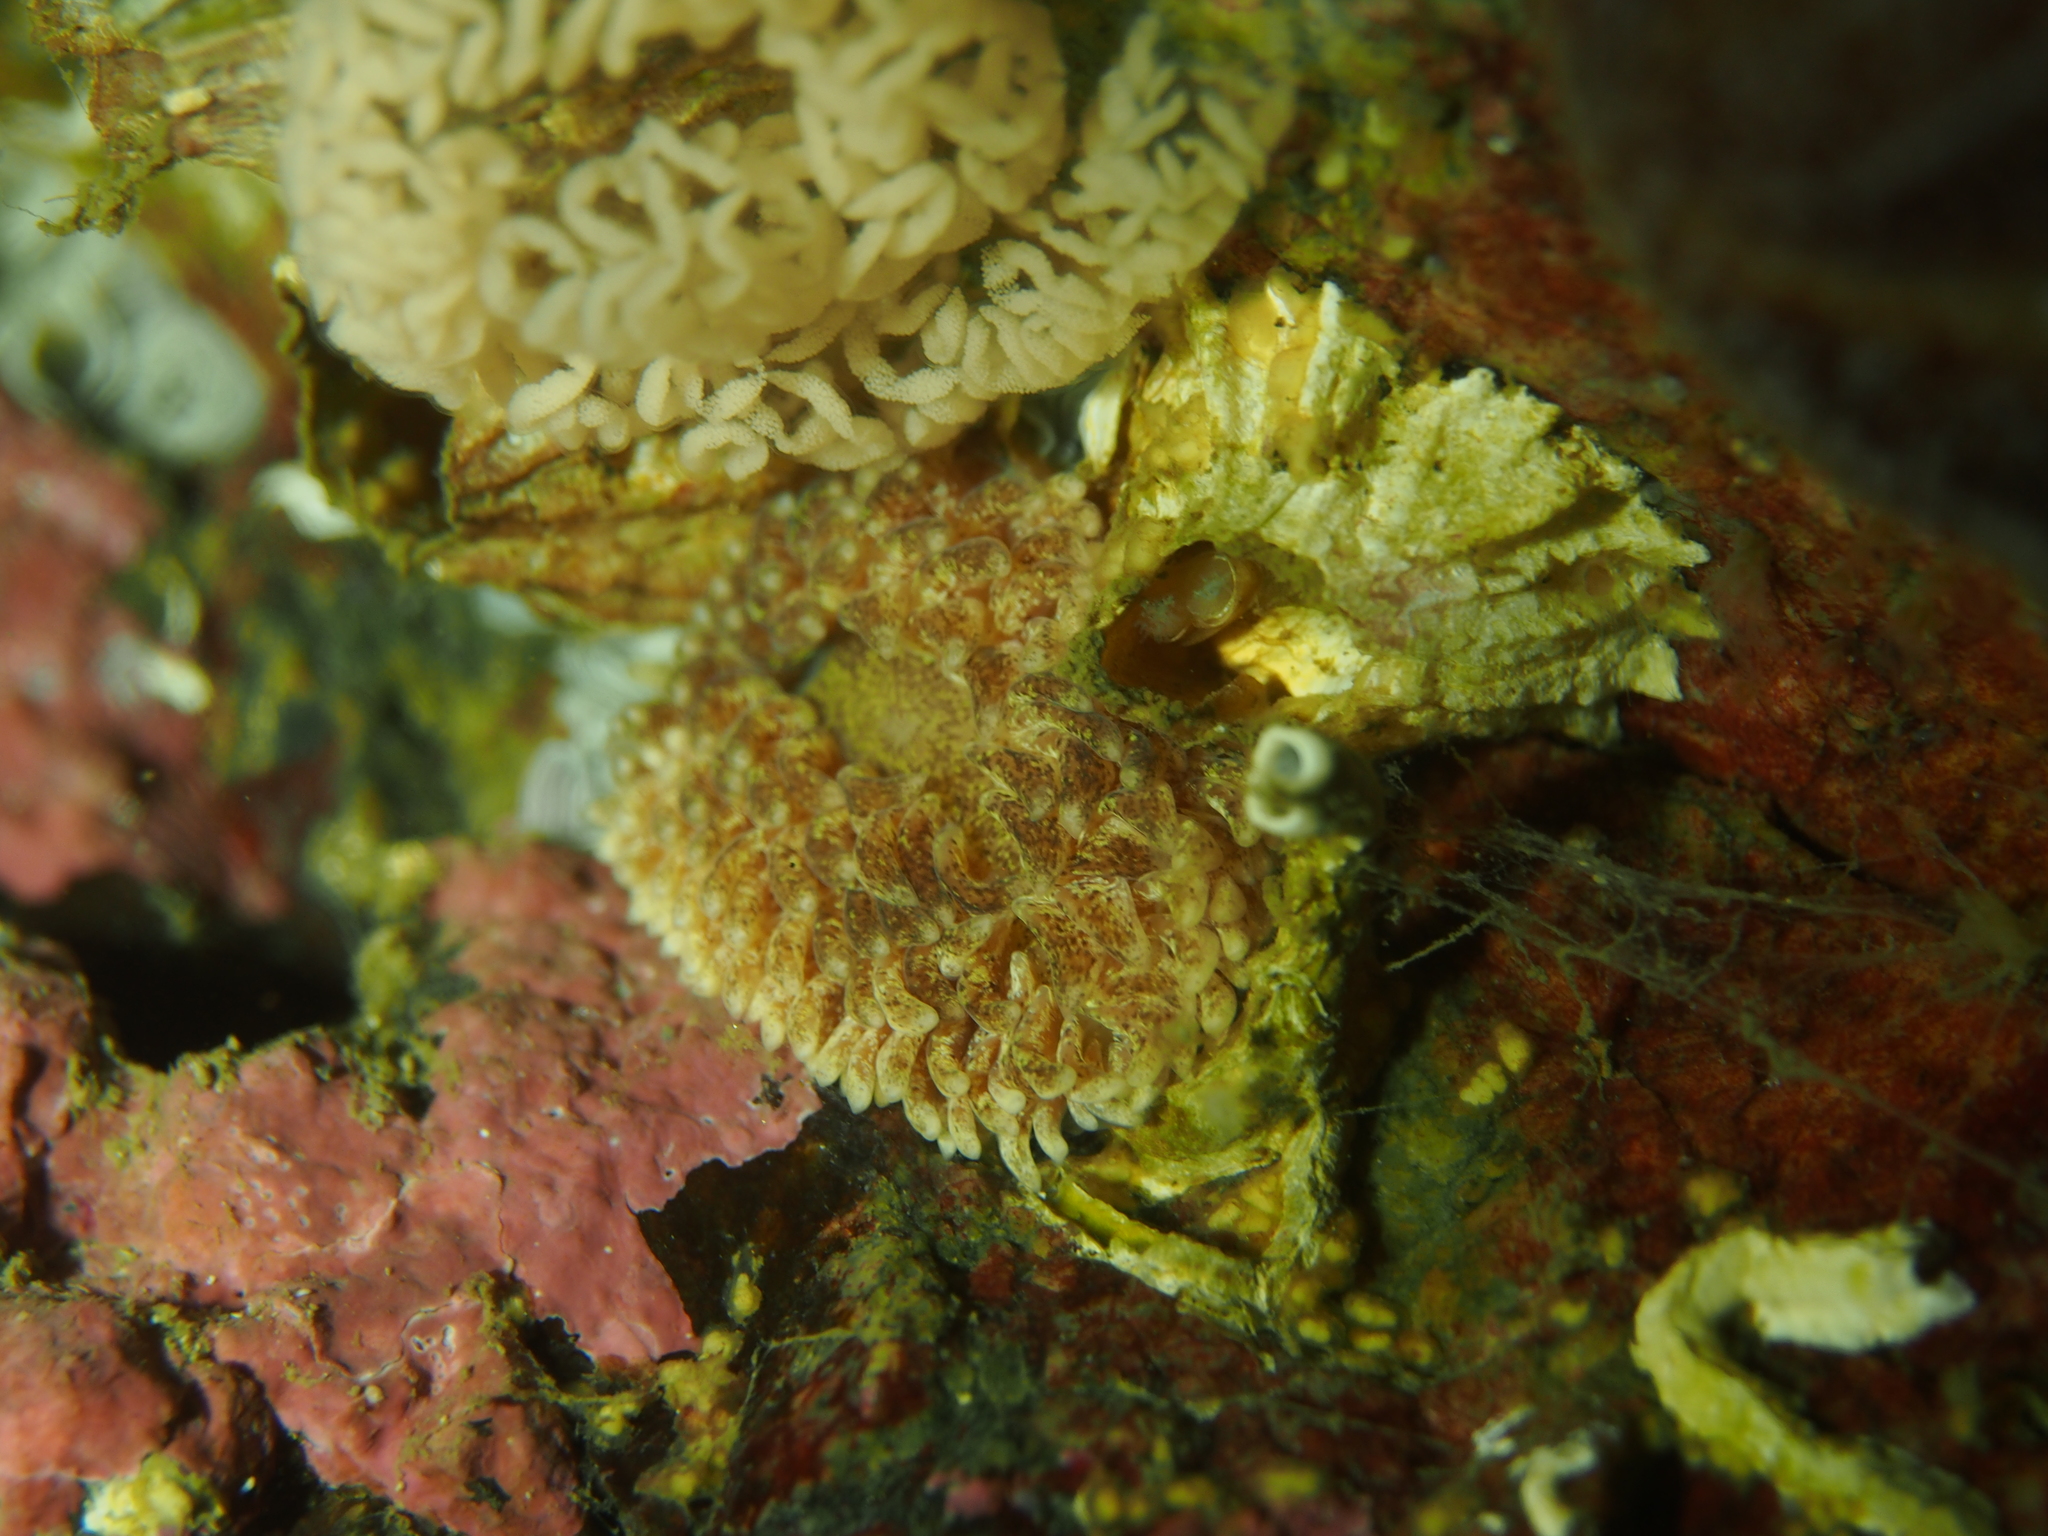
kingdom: Animalia
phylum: Mollusca
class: Gastropoda
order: Nudibranchia
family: Aeolidiidae
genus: Aeolidia
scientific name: Aeolidia papillosa
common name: Common grey sea slug
